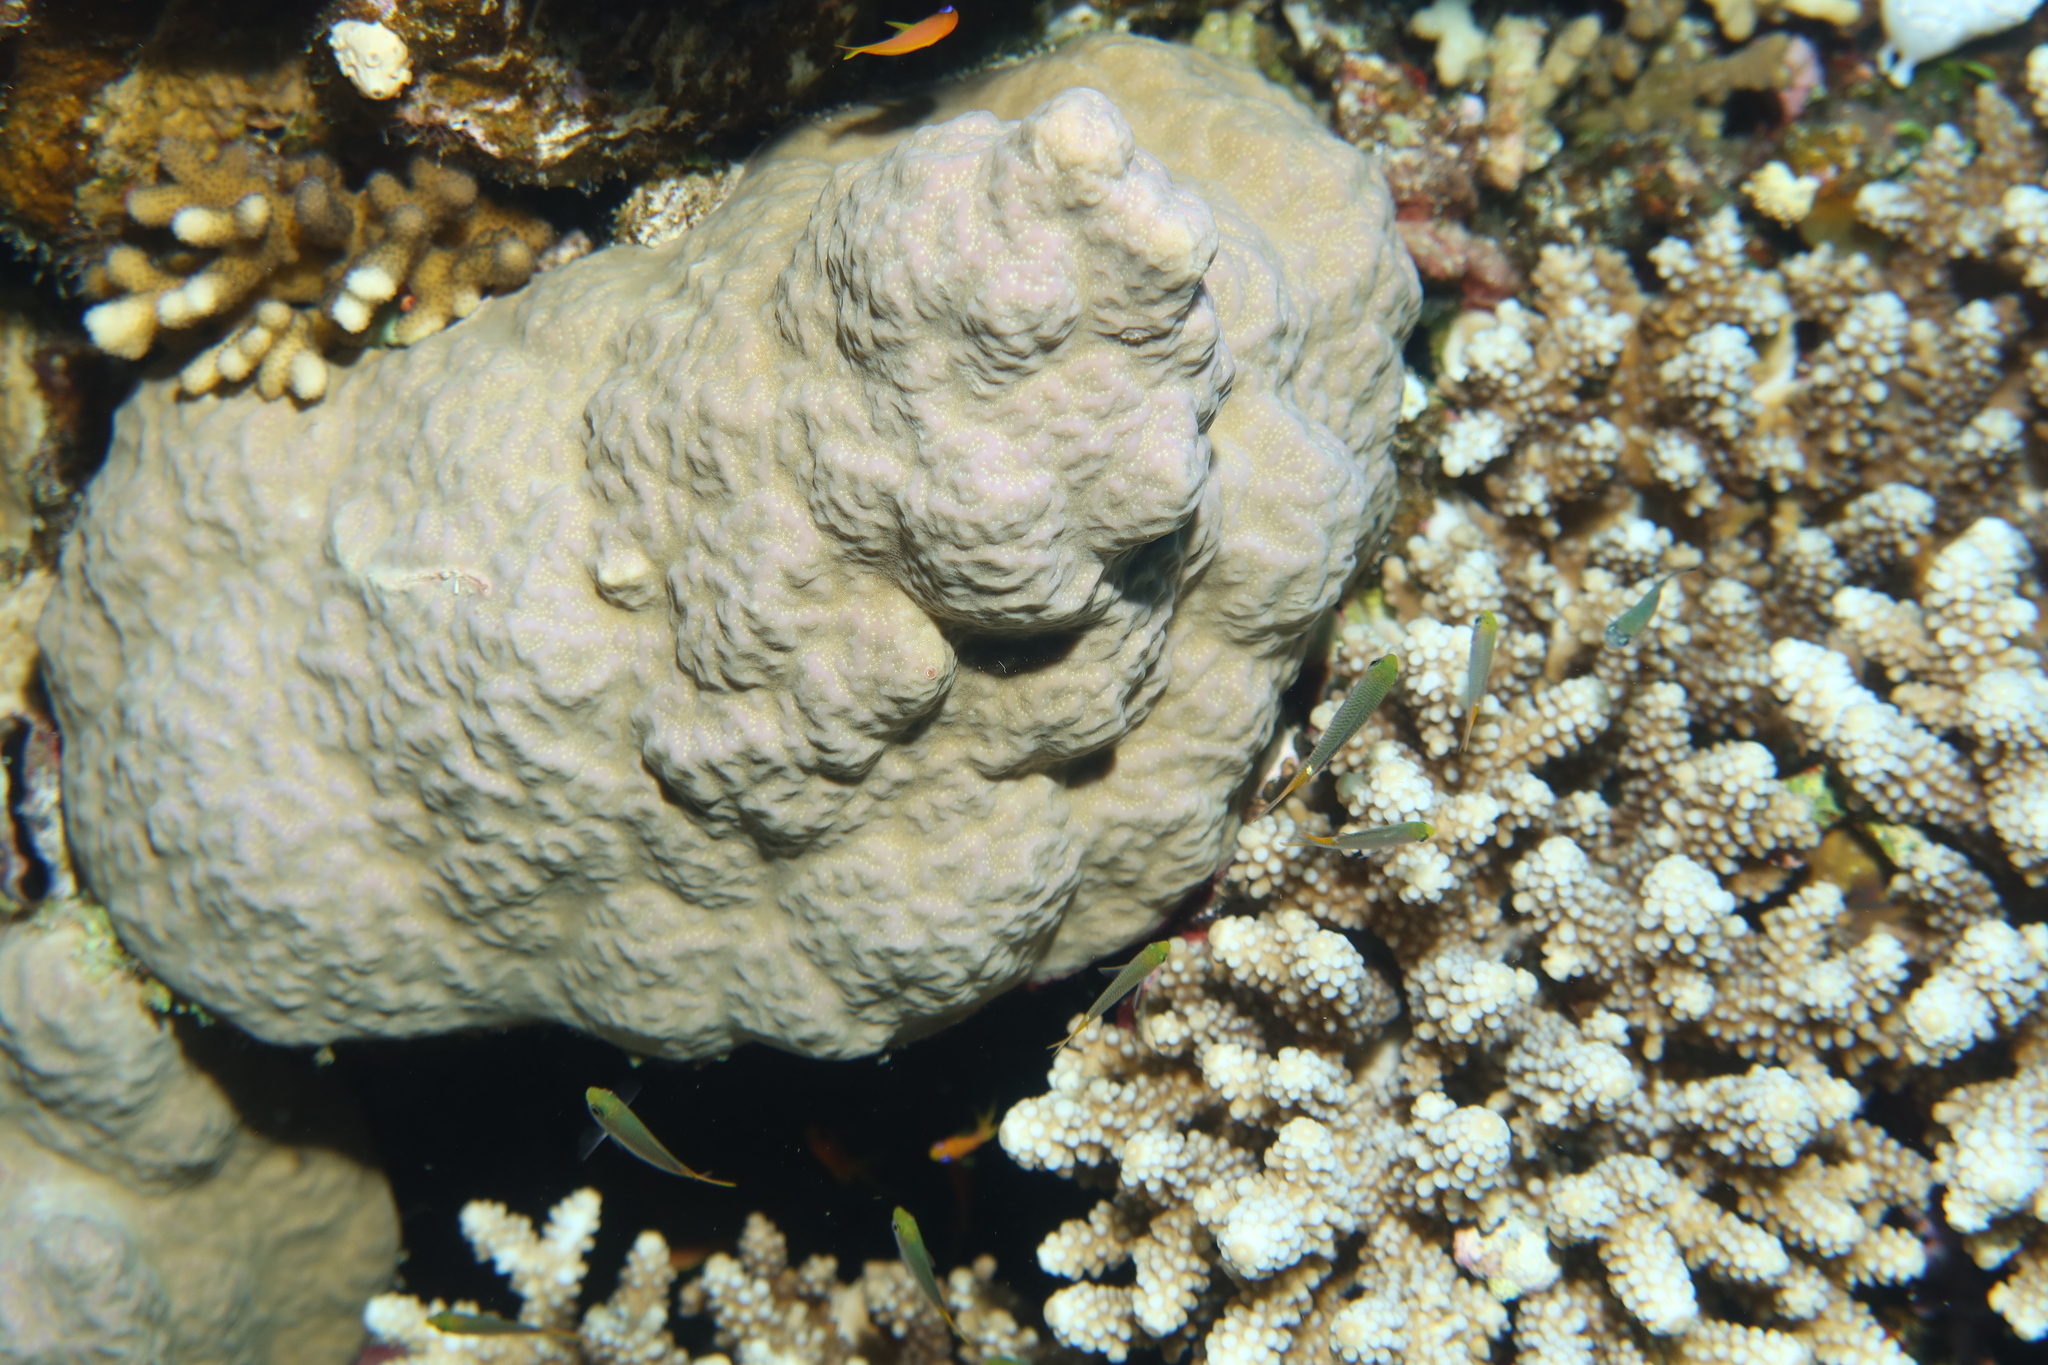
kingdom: Animalia
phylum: Cnidaria
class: Anthozoa
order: Scleractinia
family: Poritidae
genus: Porites
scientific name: Porites rus
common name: Hump coral
